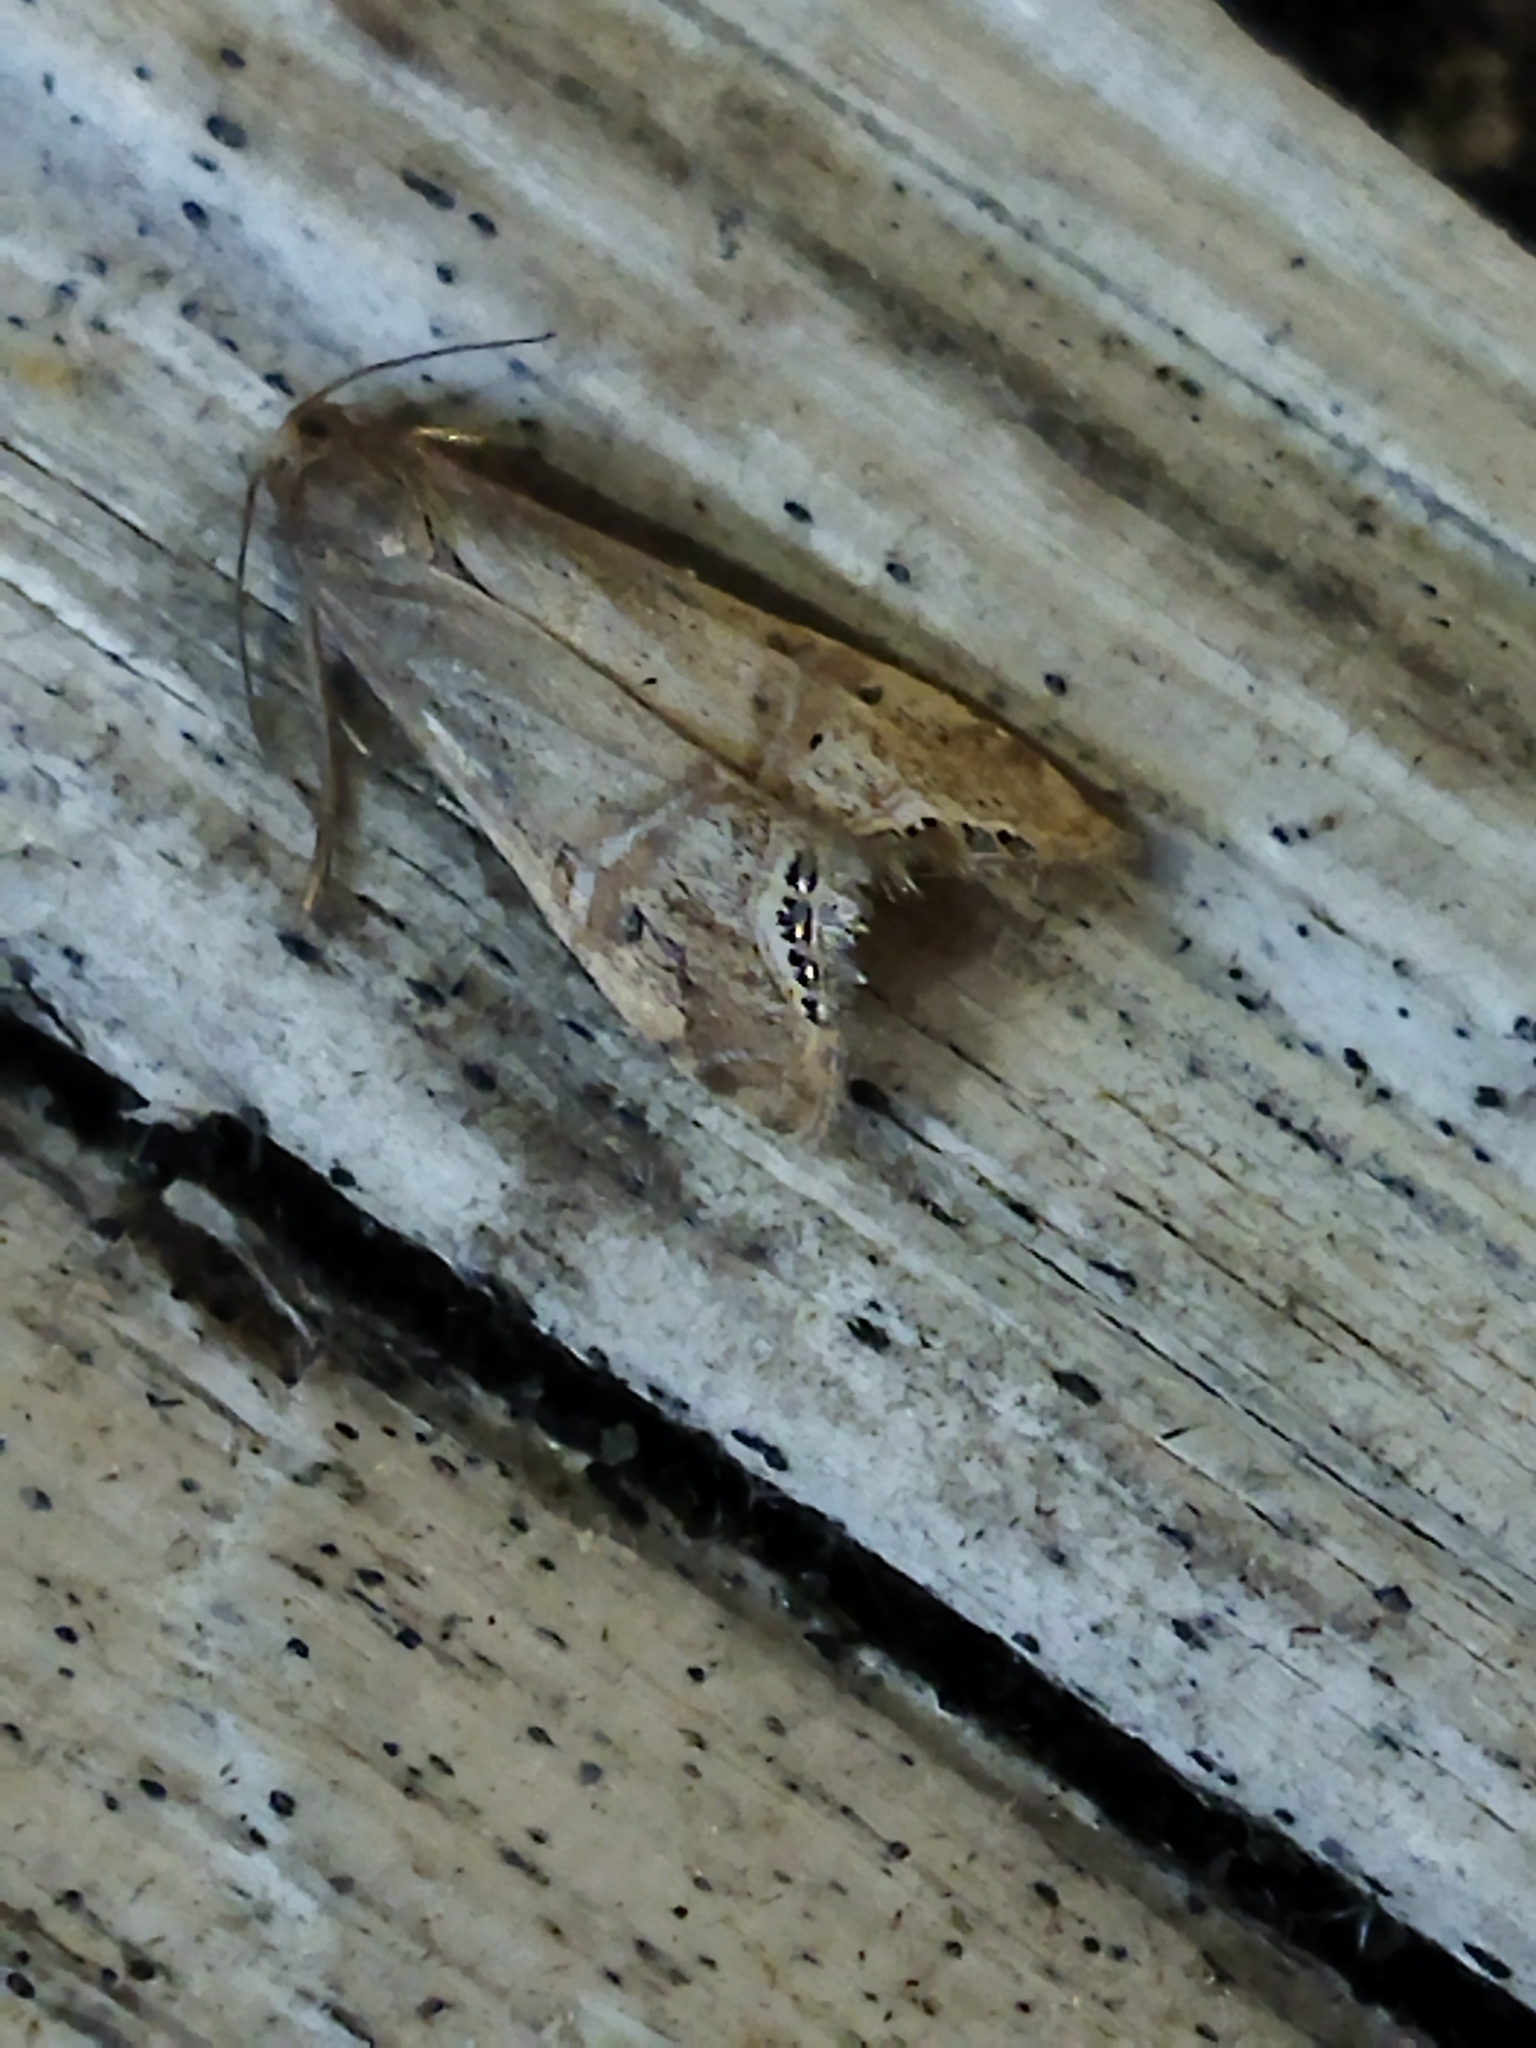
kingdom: Animalia
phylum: Arthropoda
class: Insecta
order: Lepidoptera
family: Crambidae
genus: Euchromius
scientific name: Euchromius ocellea
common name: Necklace veneer moth
